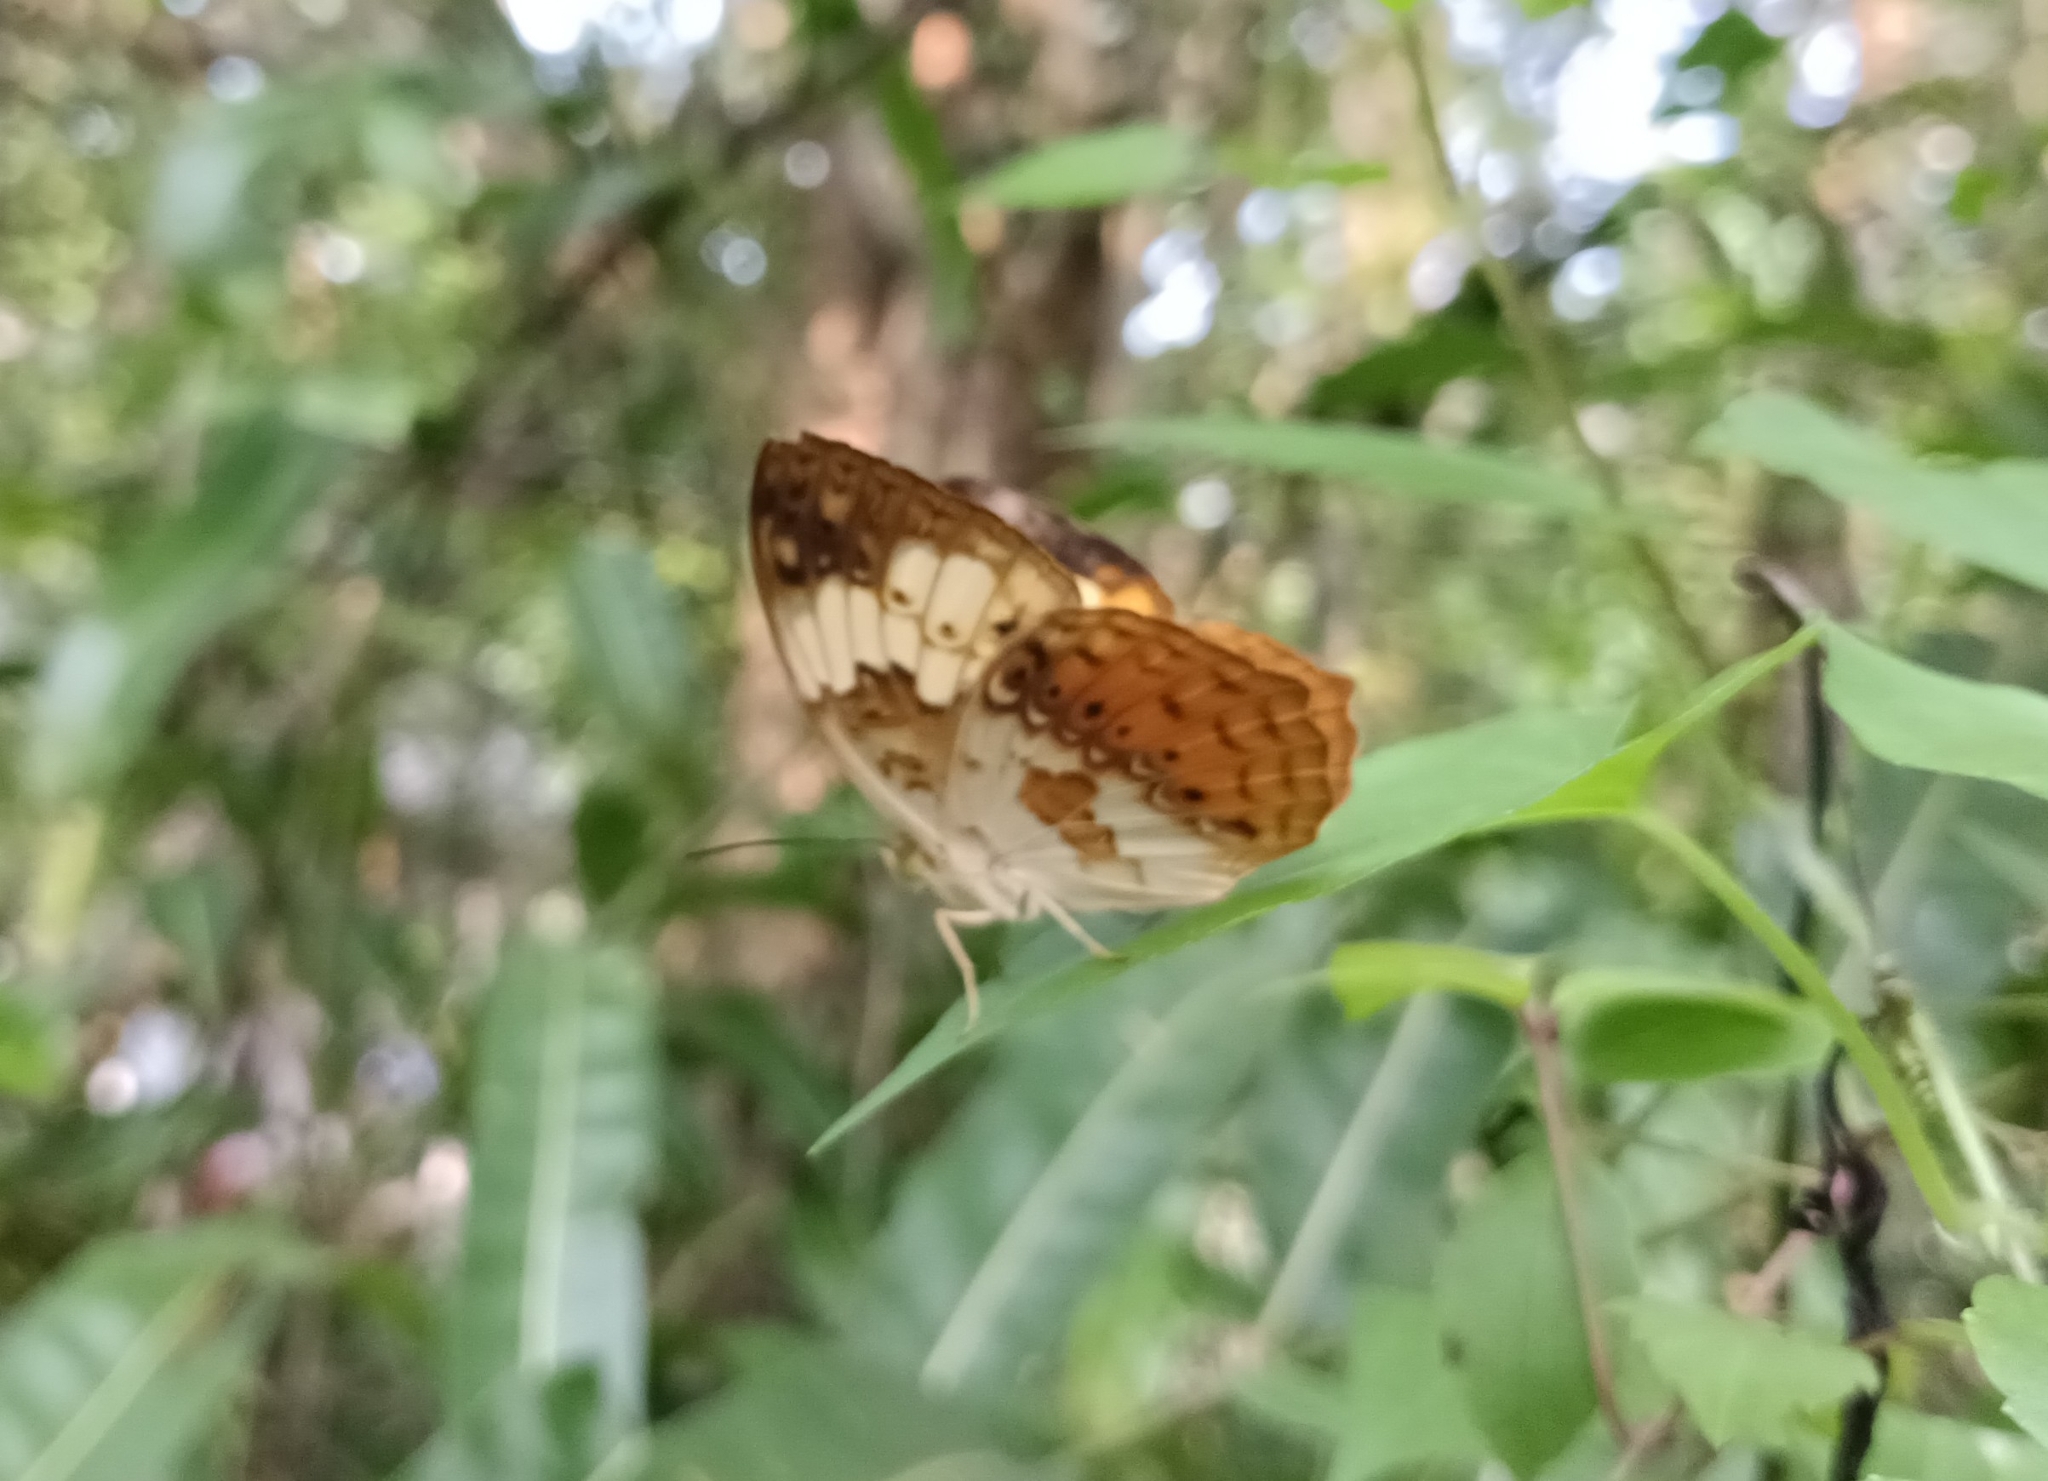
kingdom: Animalia
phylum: Arthropoda
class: Insecta
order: Lepidoptera
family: Nymphalidae
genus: Cupha
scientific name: Cupha erymanthis
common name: Rustic
